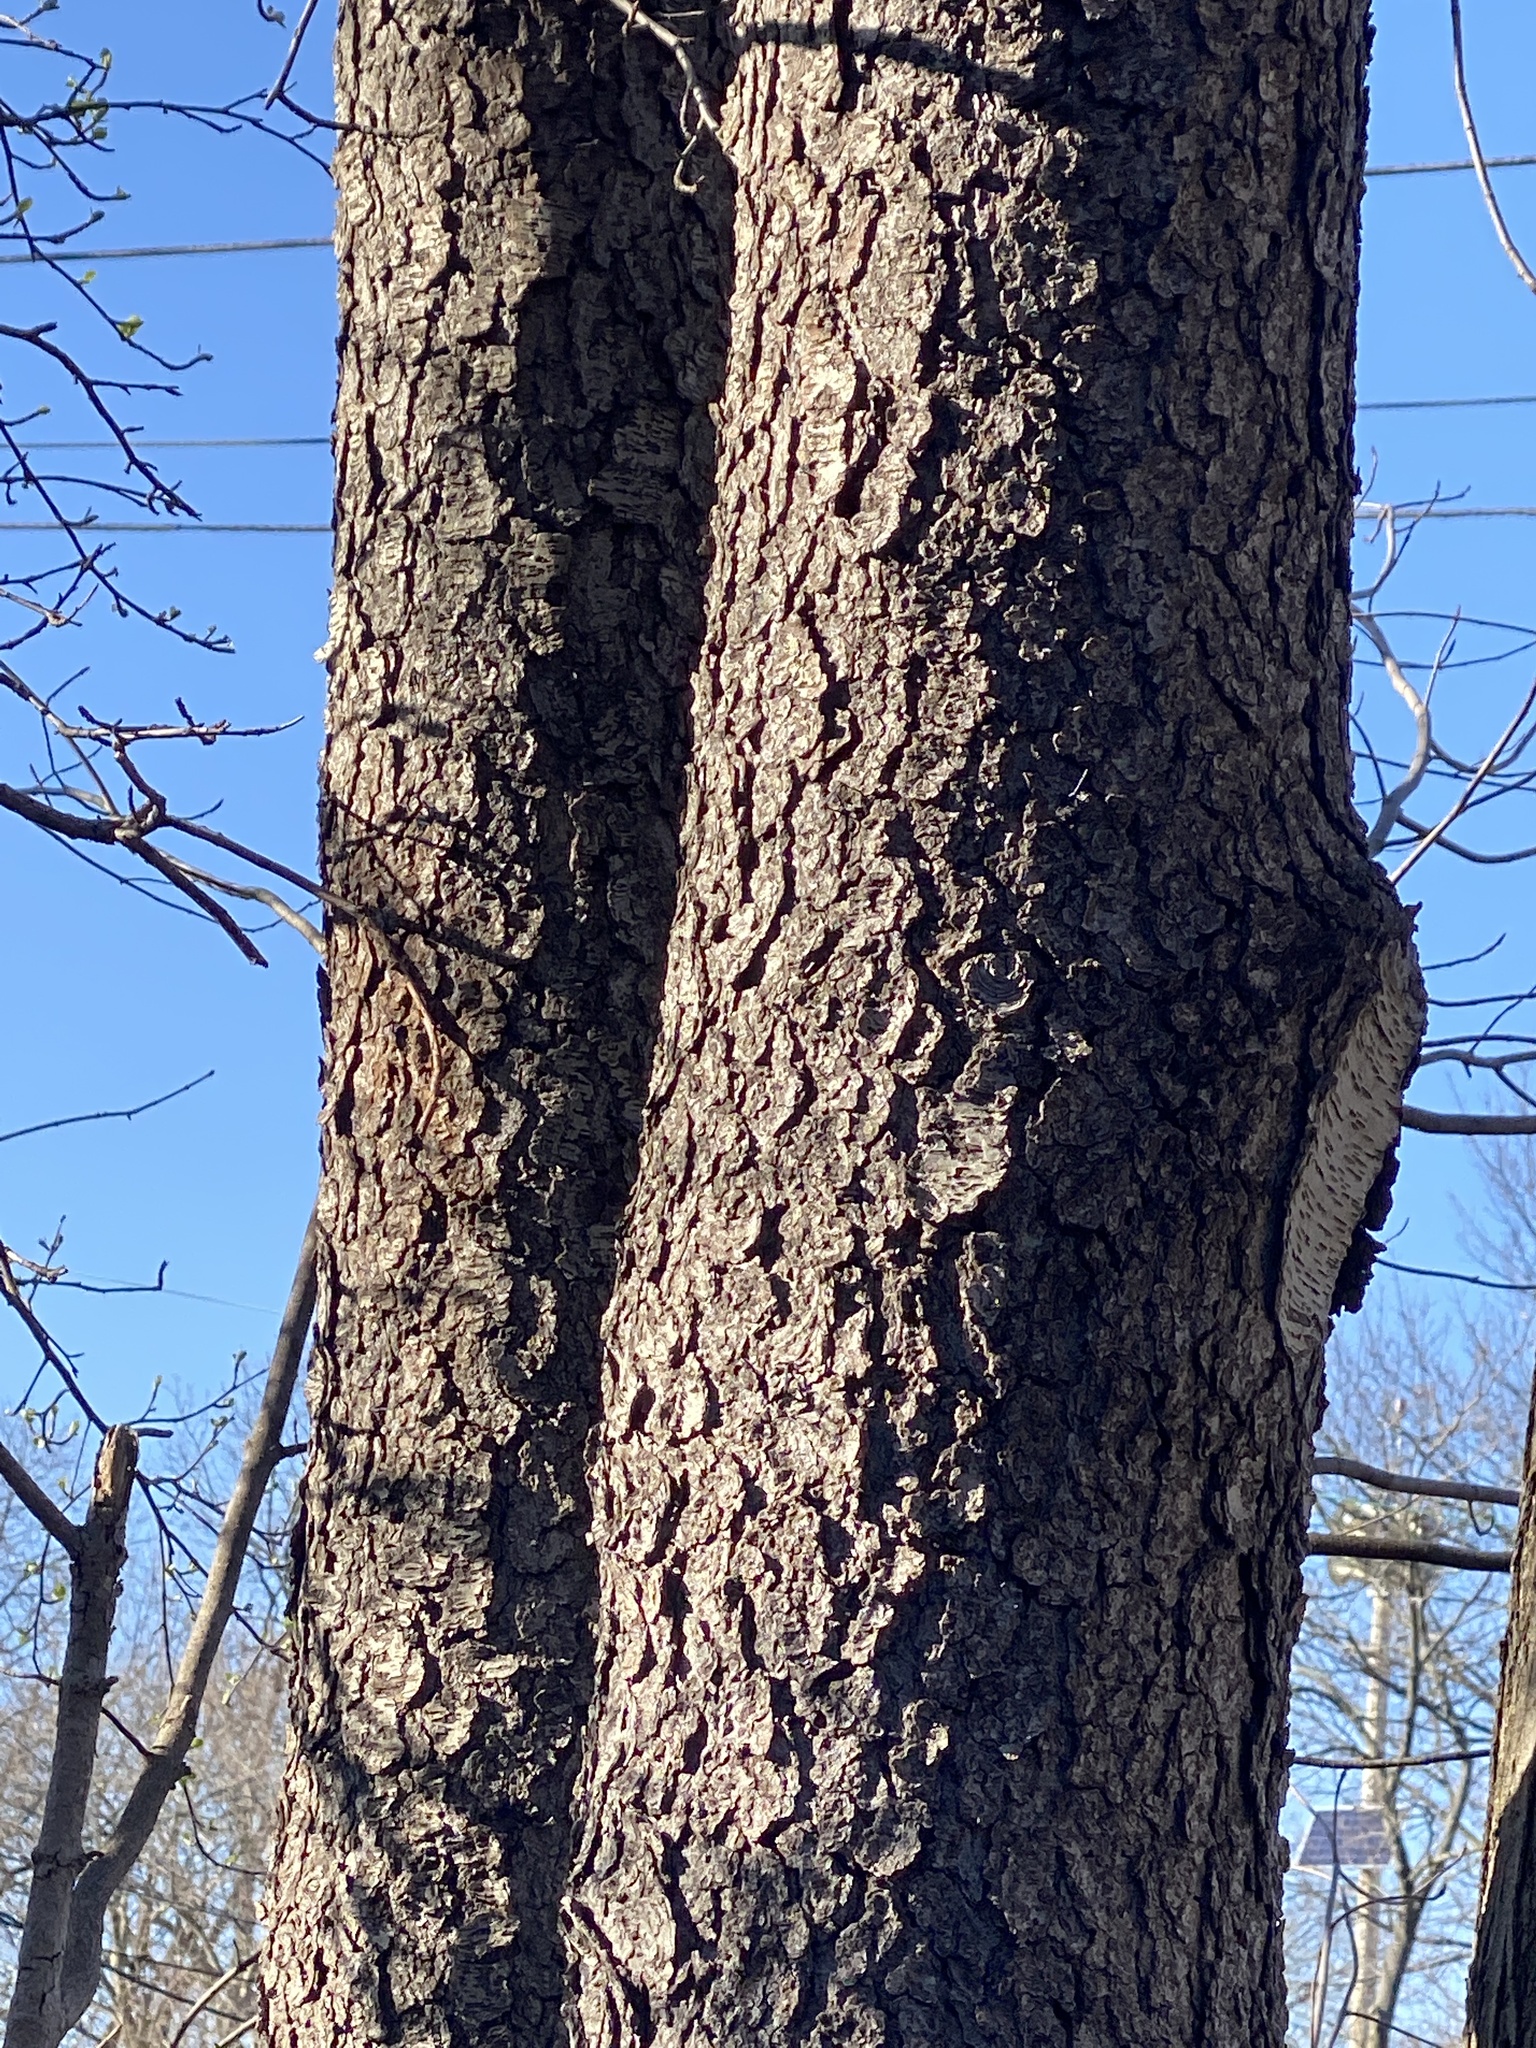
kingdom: Plantae
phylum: Tracheophyta
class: Magnoliopsida
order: Rosales
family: Rosaceae
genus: Prunus
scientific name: Prunus serotina
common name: Black cherry
